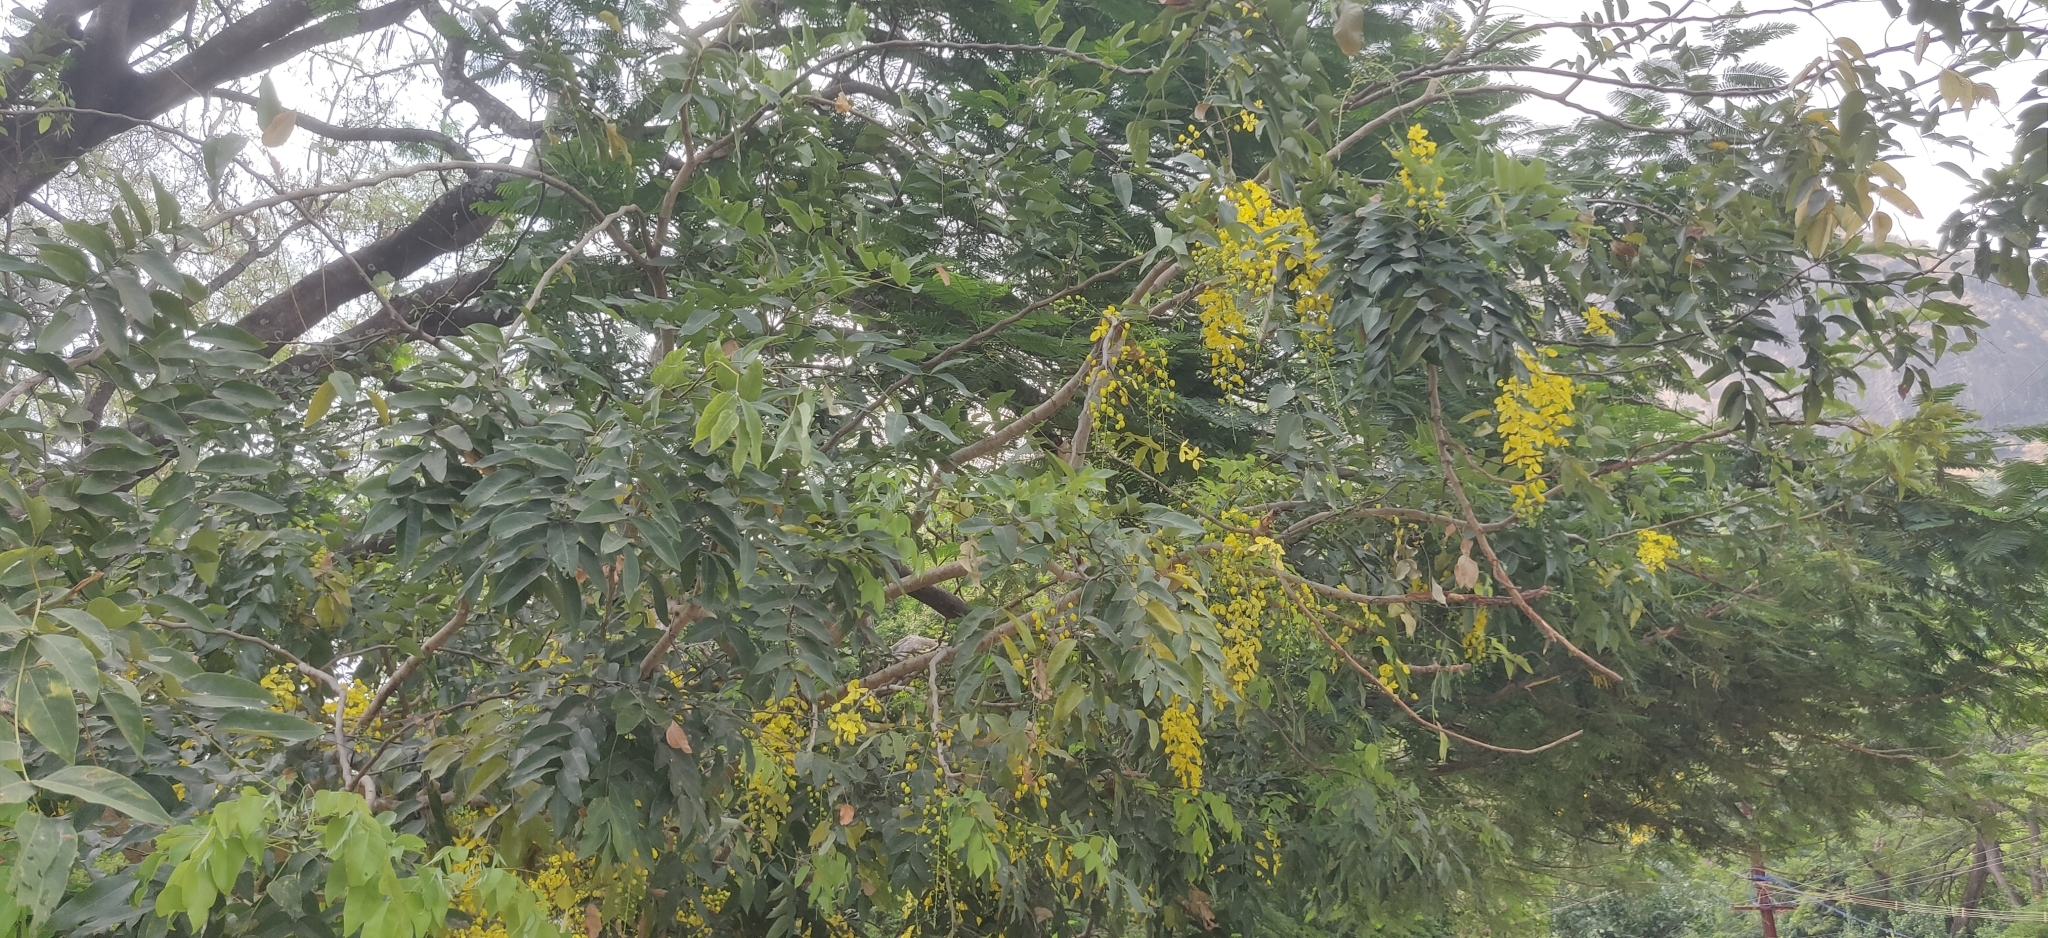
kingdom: Plantae
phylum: Tracheophyta
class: Magnoliopsida
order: Fabales
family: Fabaceae
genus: Cassia
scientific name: Cassia fistula
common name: Golden shower
